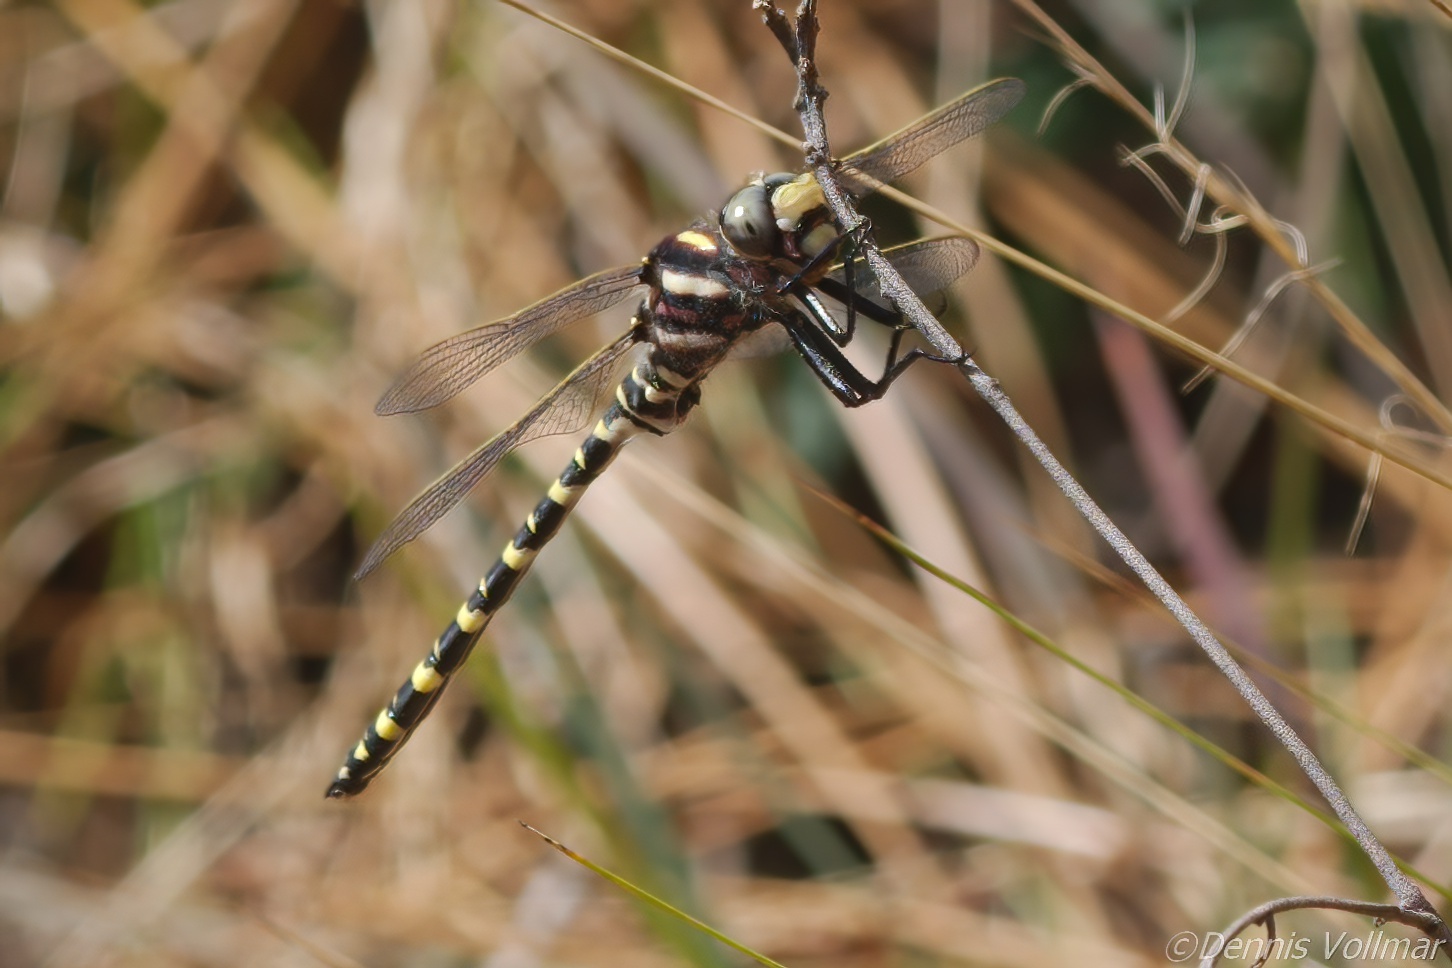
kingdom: Animalia
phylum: Arthropoda
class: Insecta
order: Odonata
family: Cordulegastridae
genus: Cordulegaster
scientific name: Cordulegaster sayi
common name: Say's spiketail
